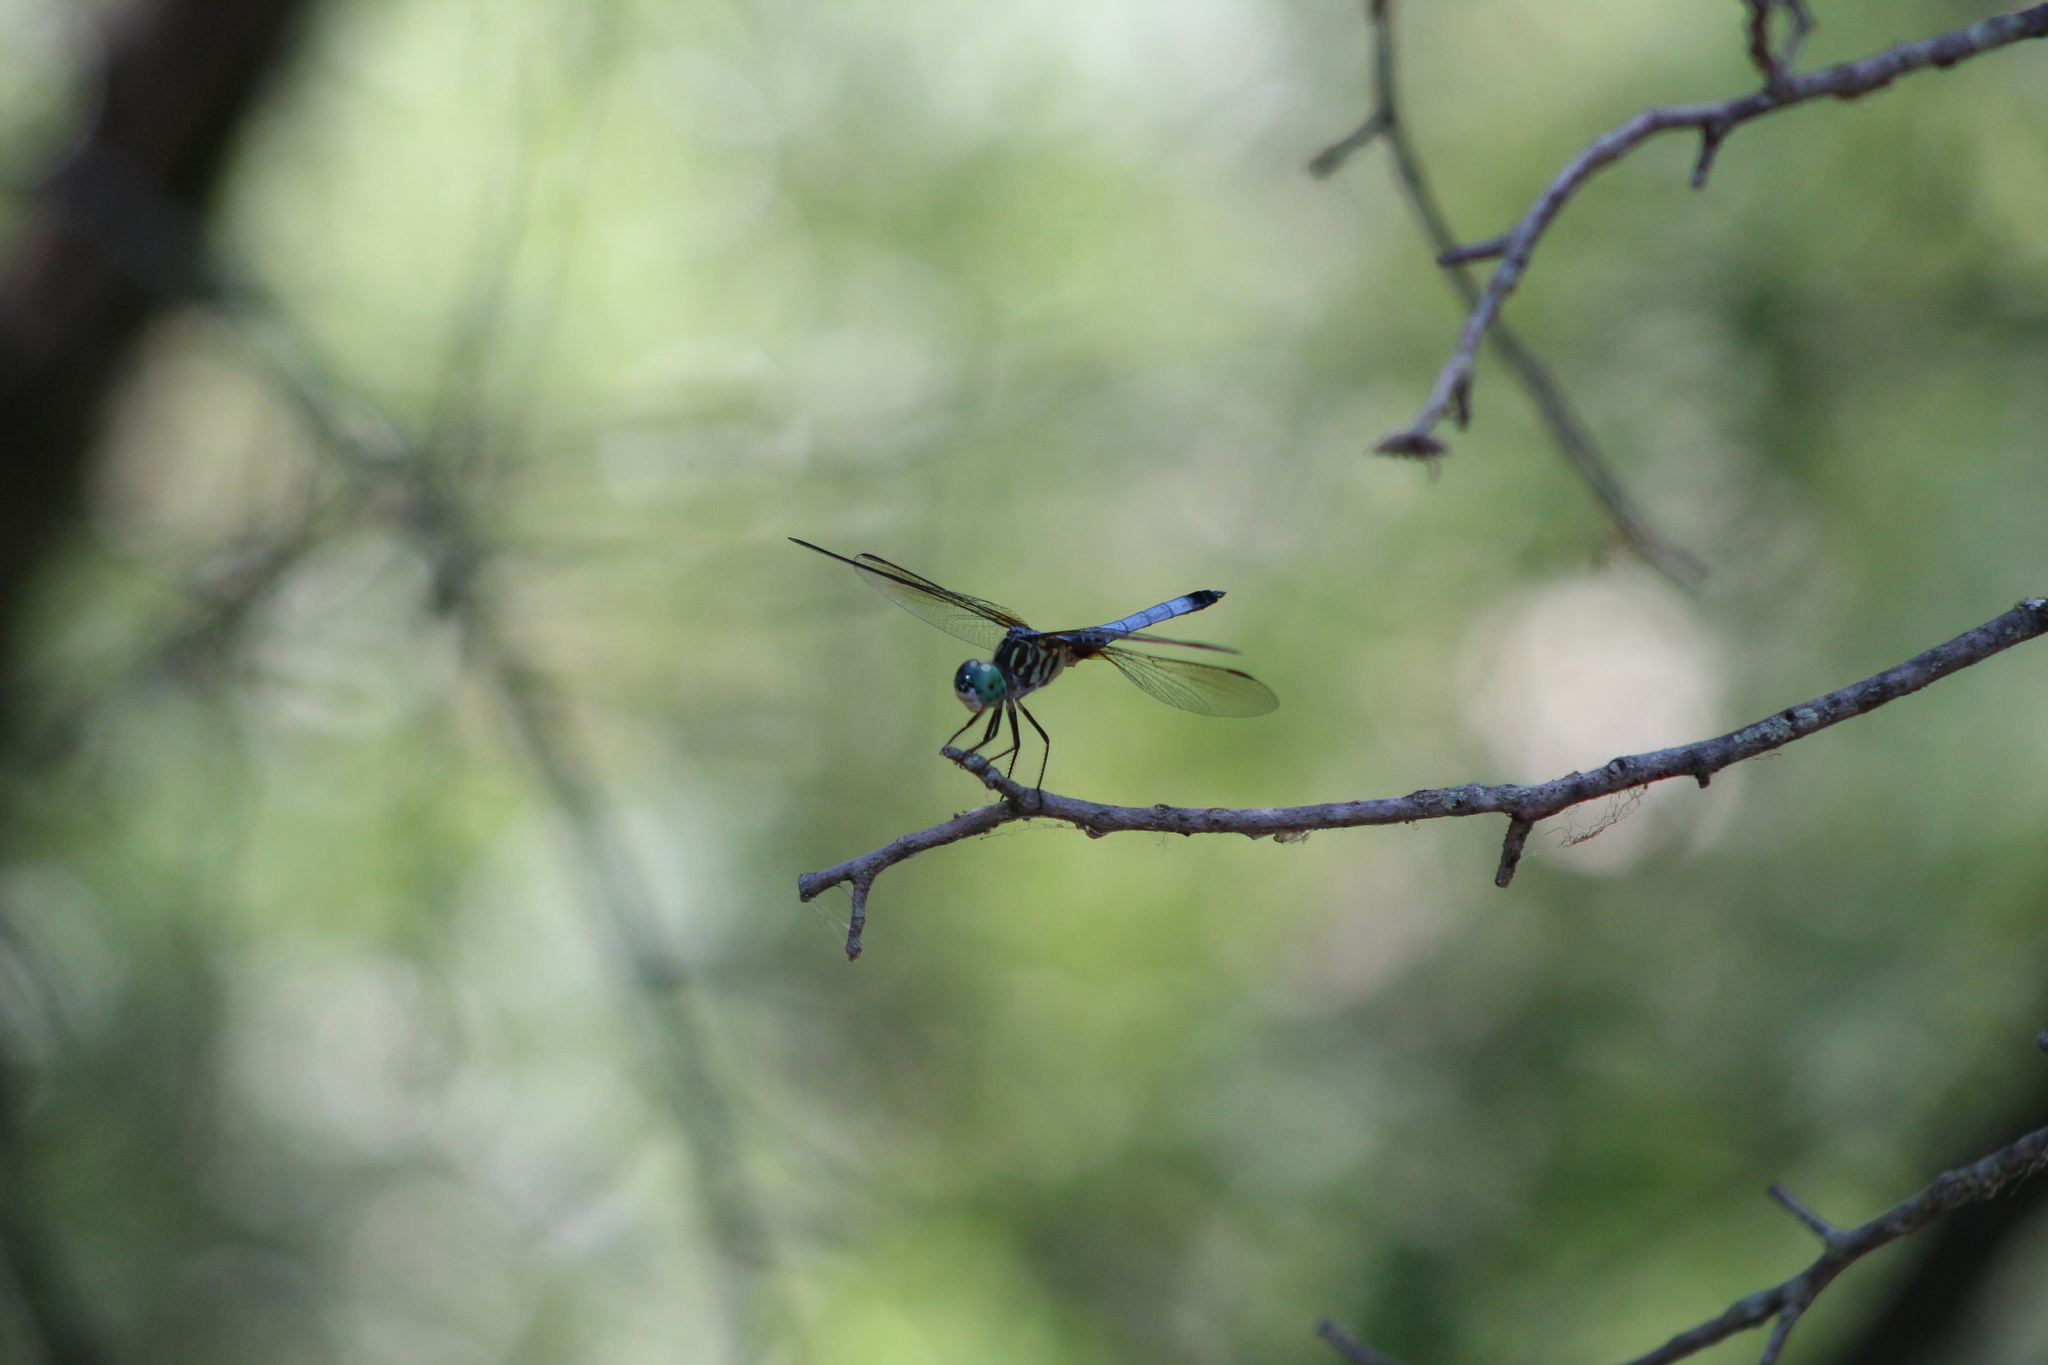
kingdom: Animalia
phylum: Arthropoda
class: Insecta
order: Odonata
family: Libellulidae
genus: Pachydiplax
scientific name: Pachydiplax longipennis
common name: Blue dasher
